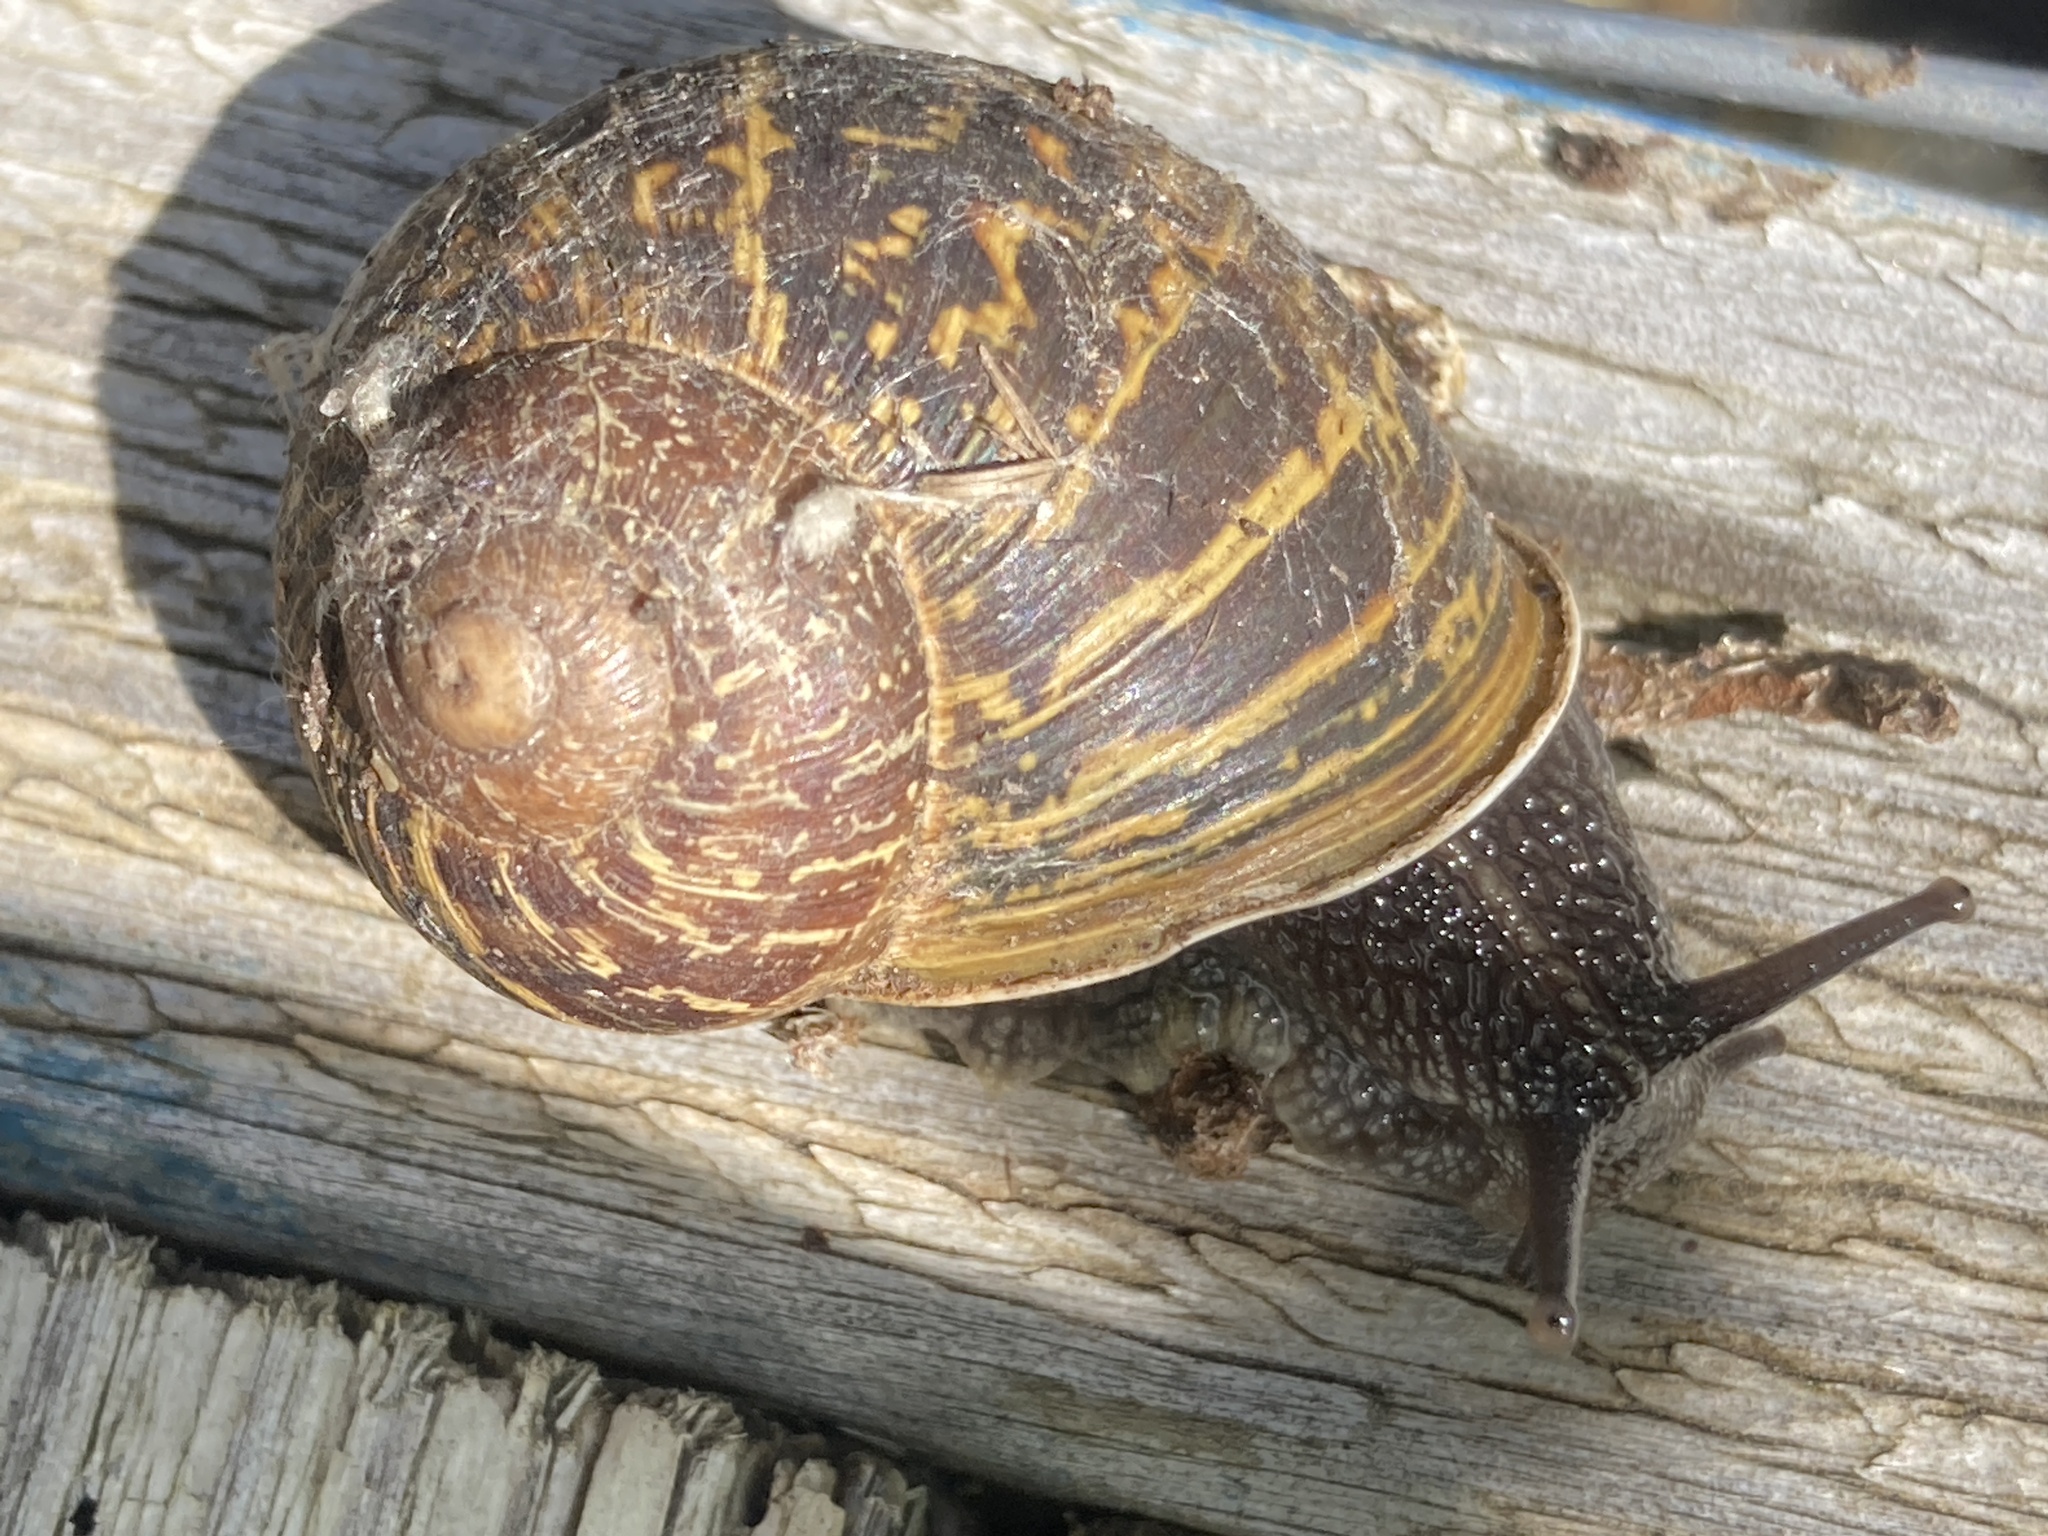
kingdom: Animalia
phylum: Mollusca
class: Gastropoda
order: Stylommatophora
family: Helicidae
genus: Cornu
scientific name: Cornu aspersum
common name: Brown garden snail
